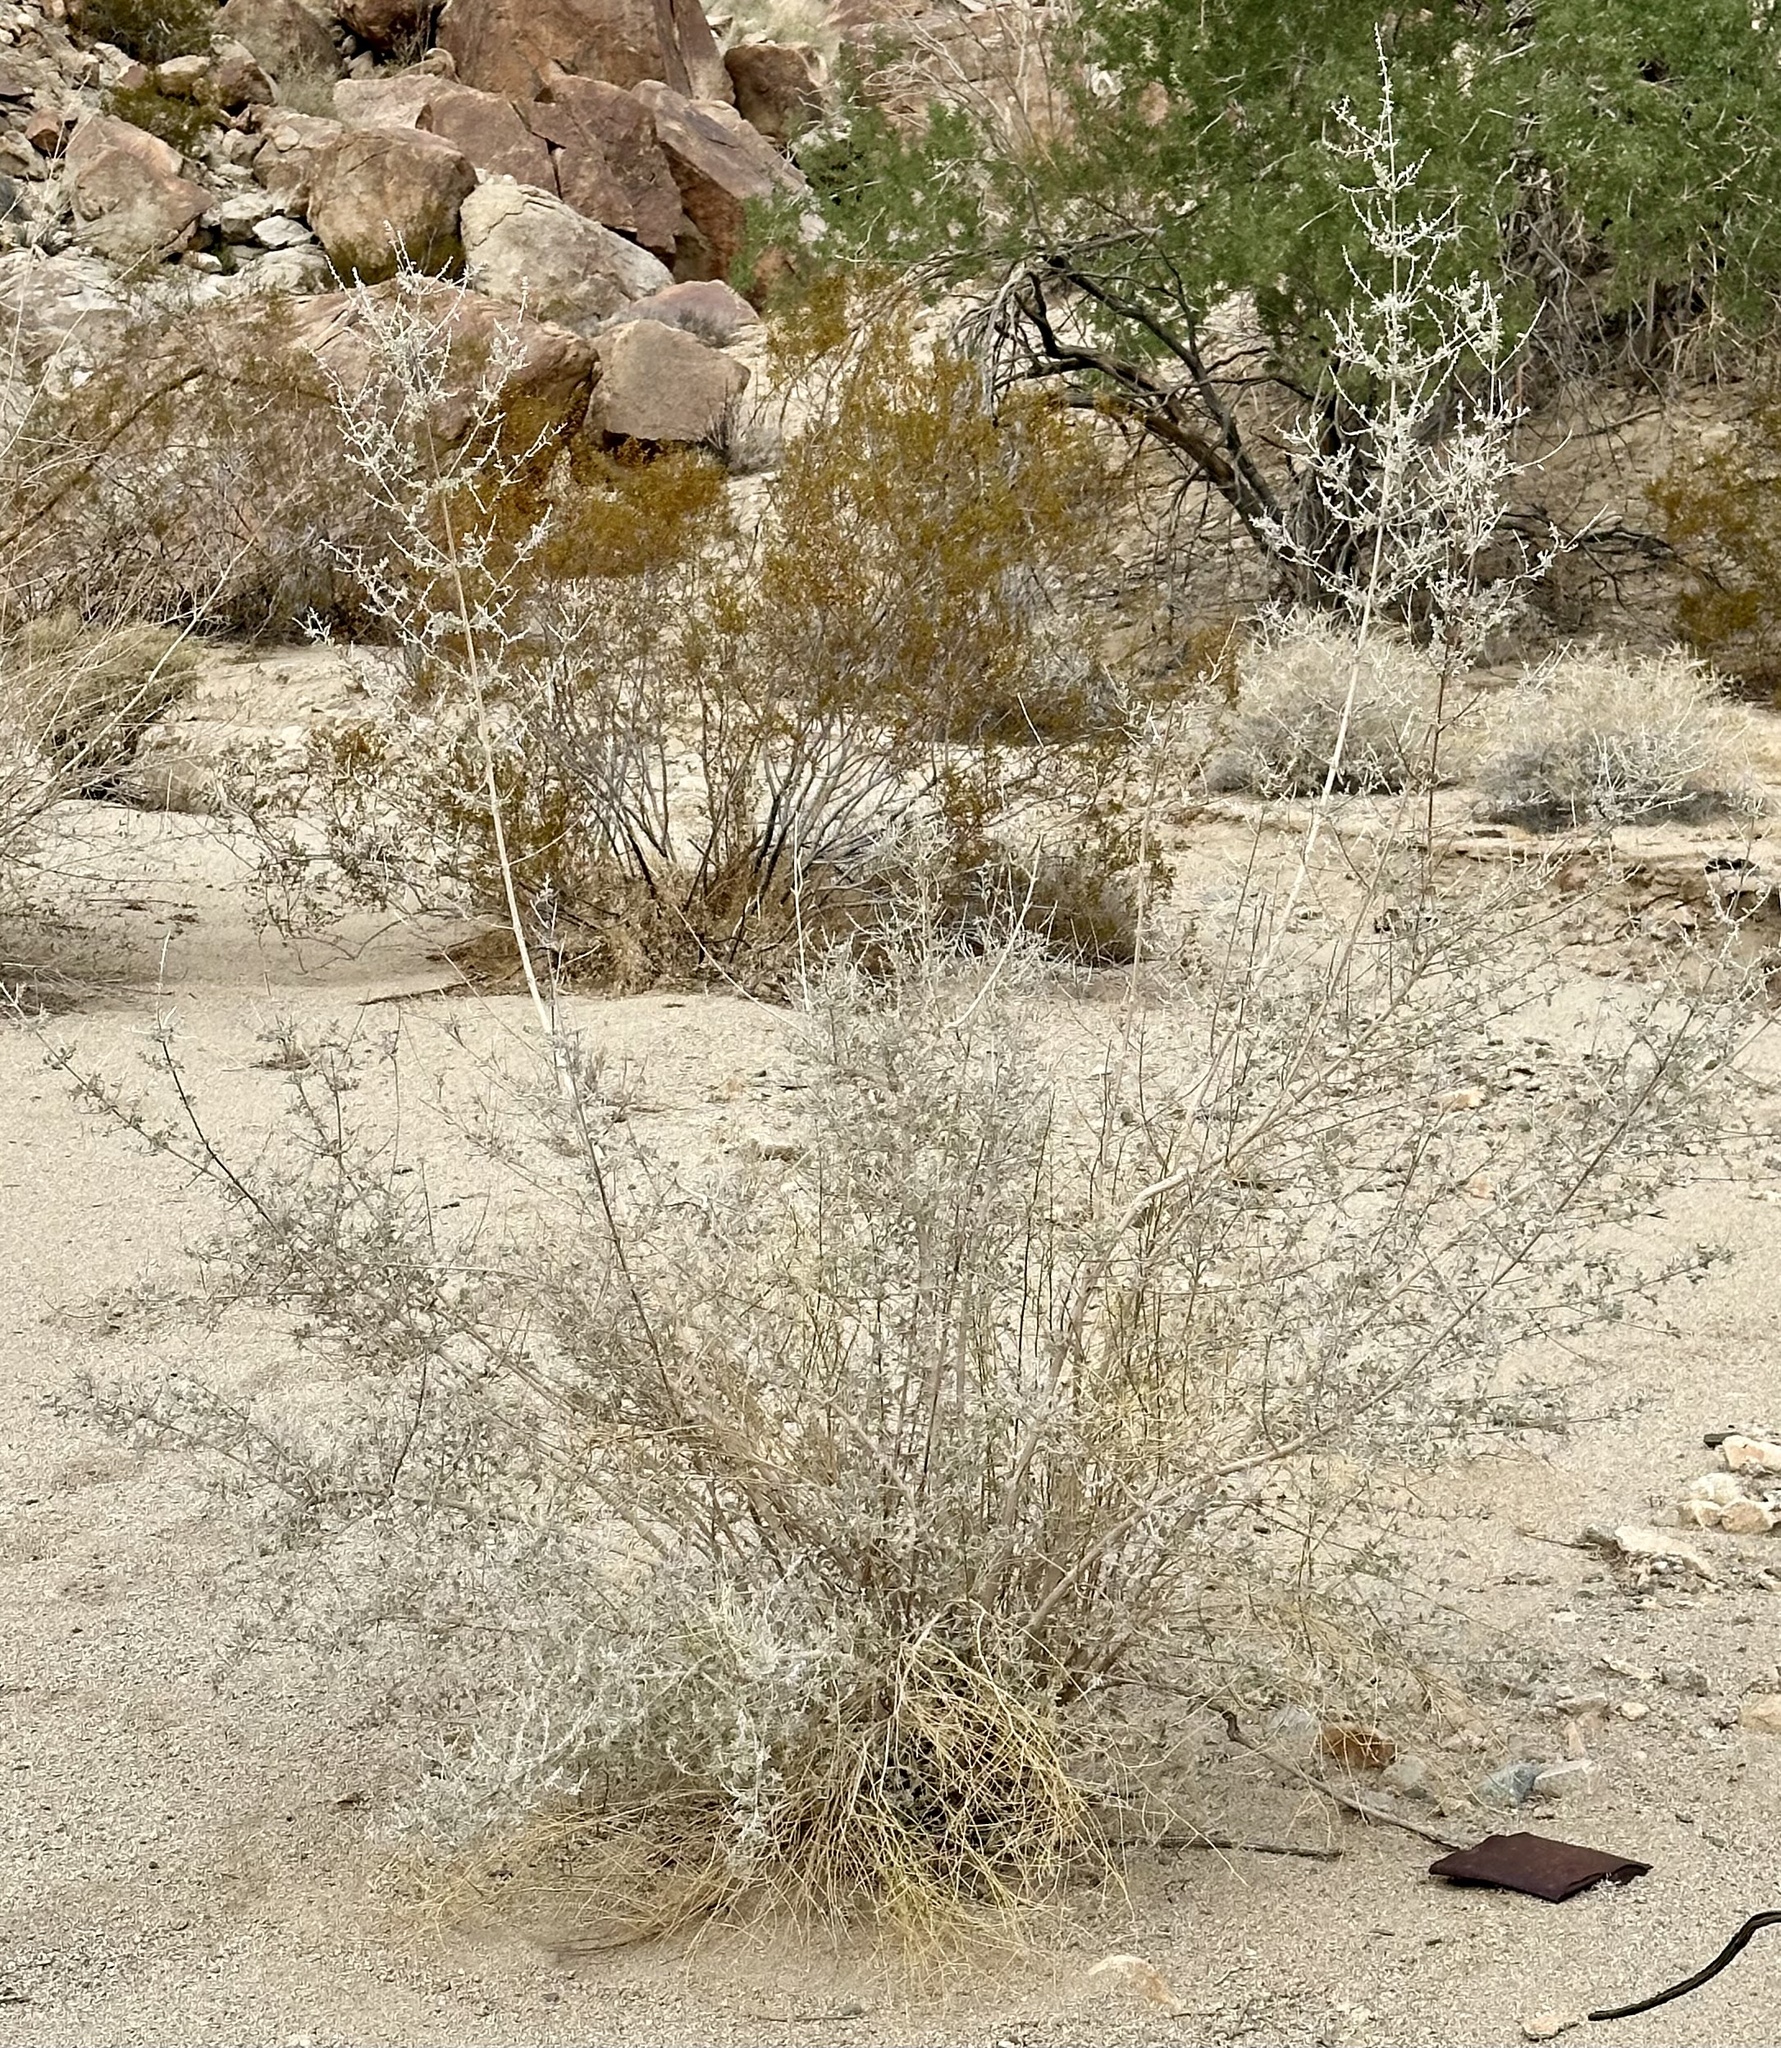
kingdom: Plantae
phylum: Tracheophyta
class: Magnoliopsida
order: Lamiales
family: Lamiaceae
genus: Condea
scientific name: Condea emoryi
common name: Chia
